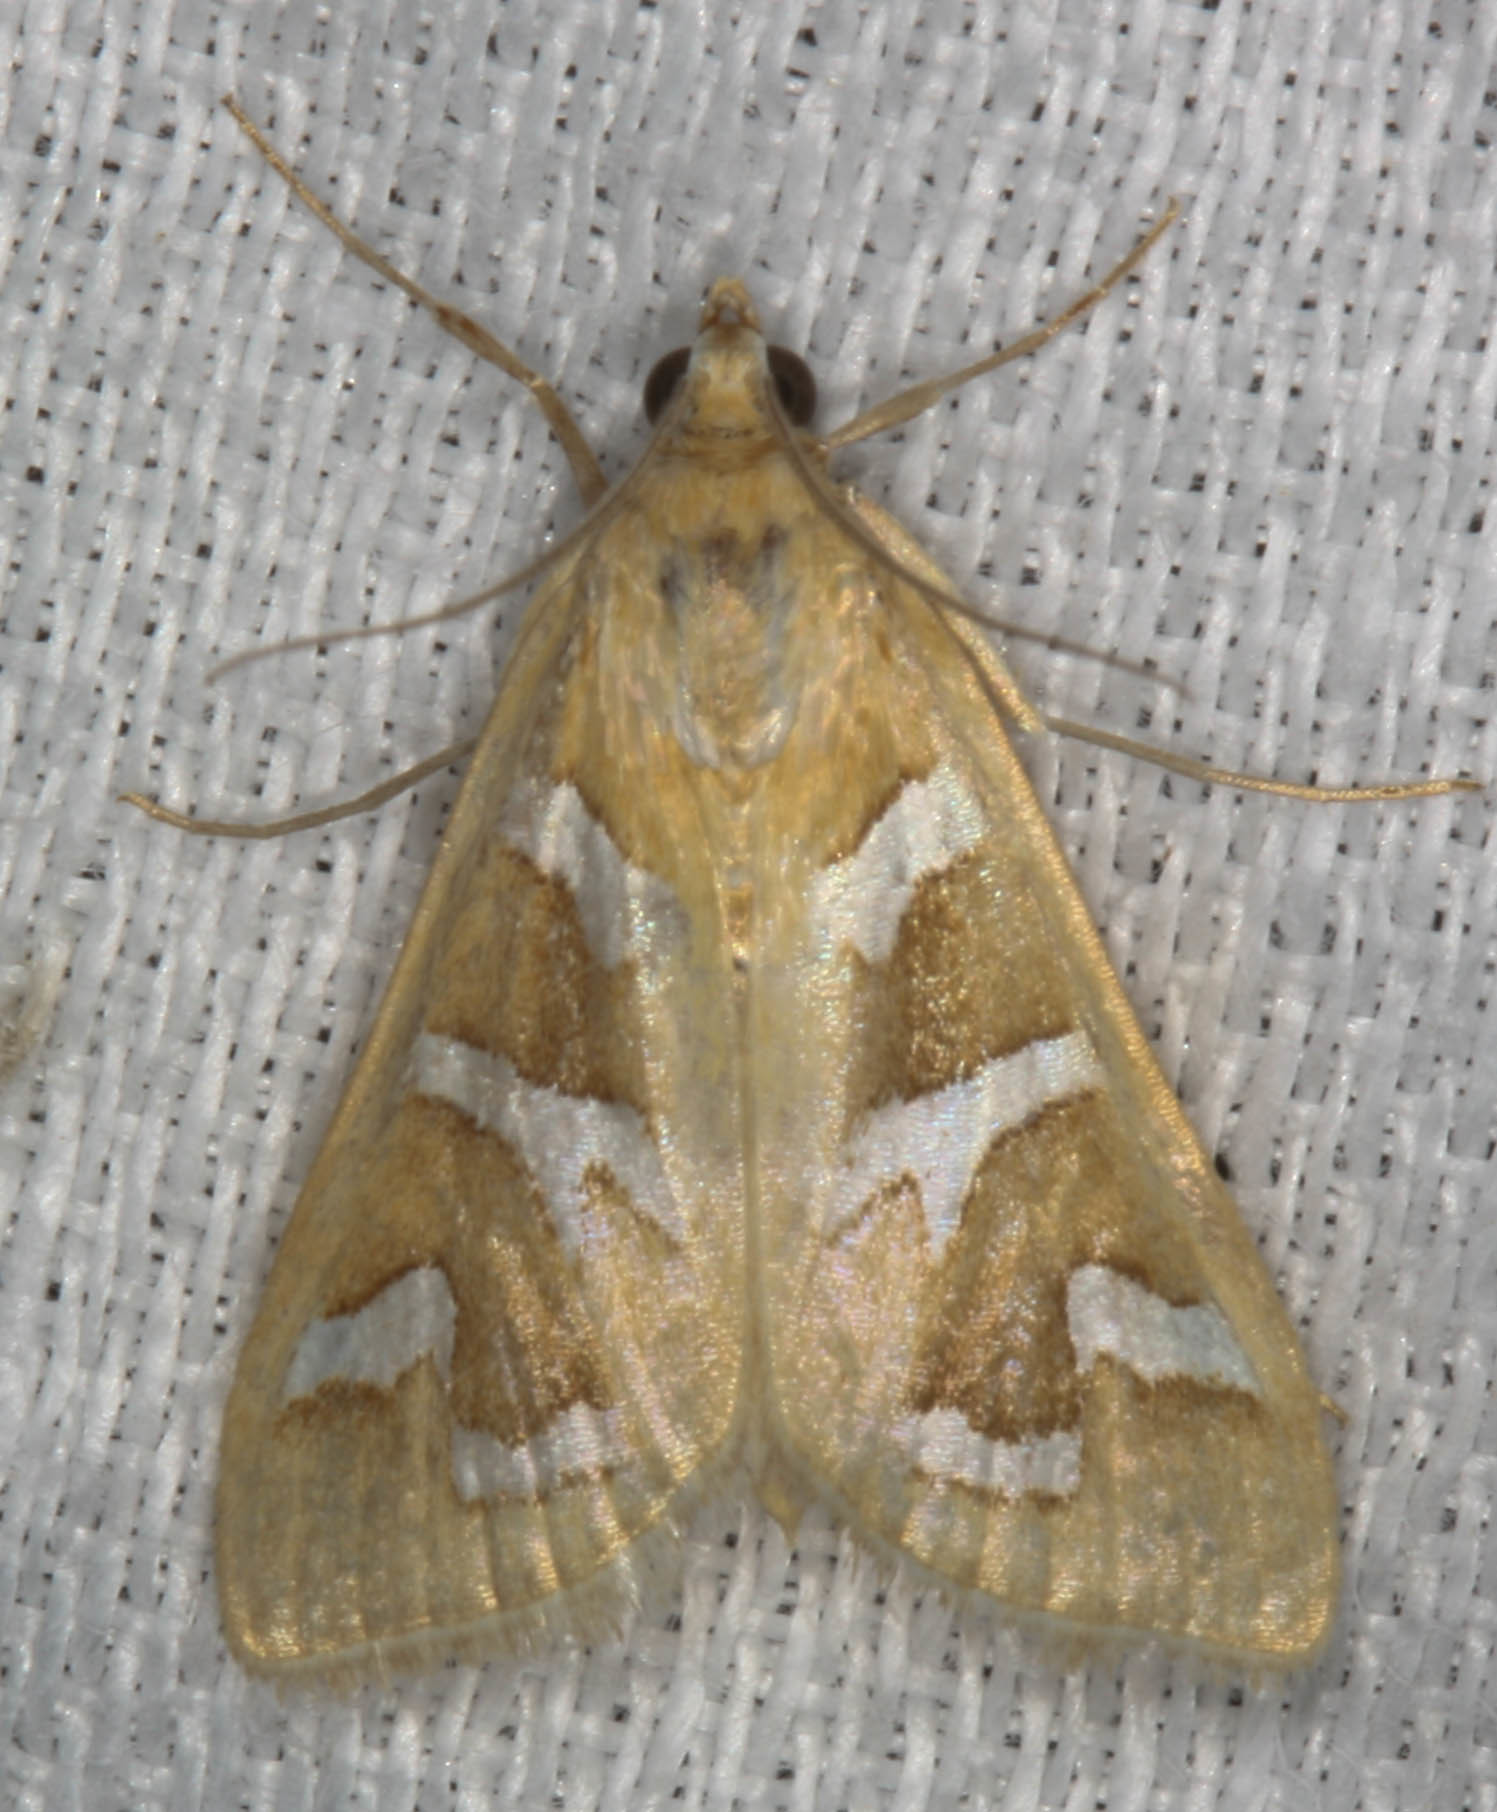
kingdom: Animalia
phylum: Arthropoda
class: Insecta
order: Lepidoptera
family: Crambidae
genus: Diastictis
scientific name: Diastictis fracturalis
